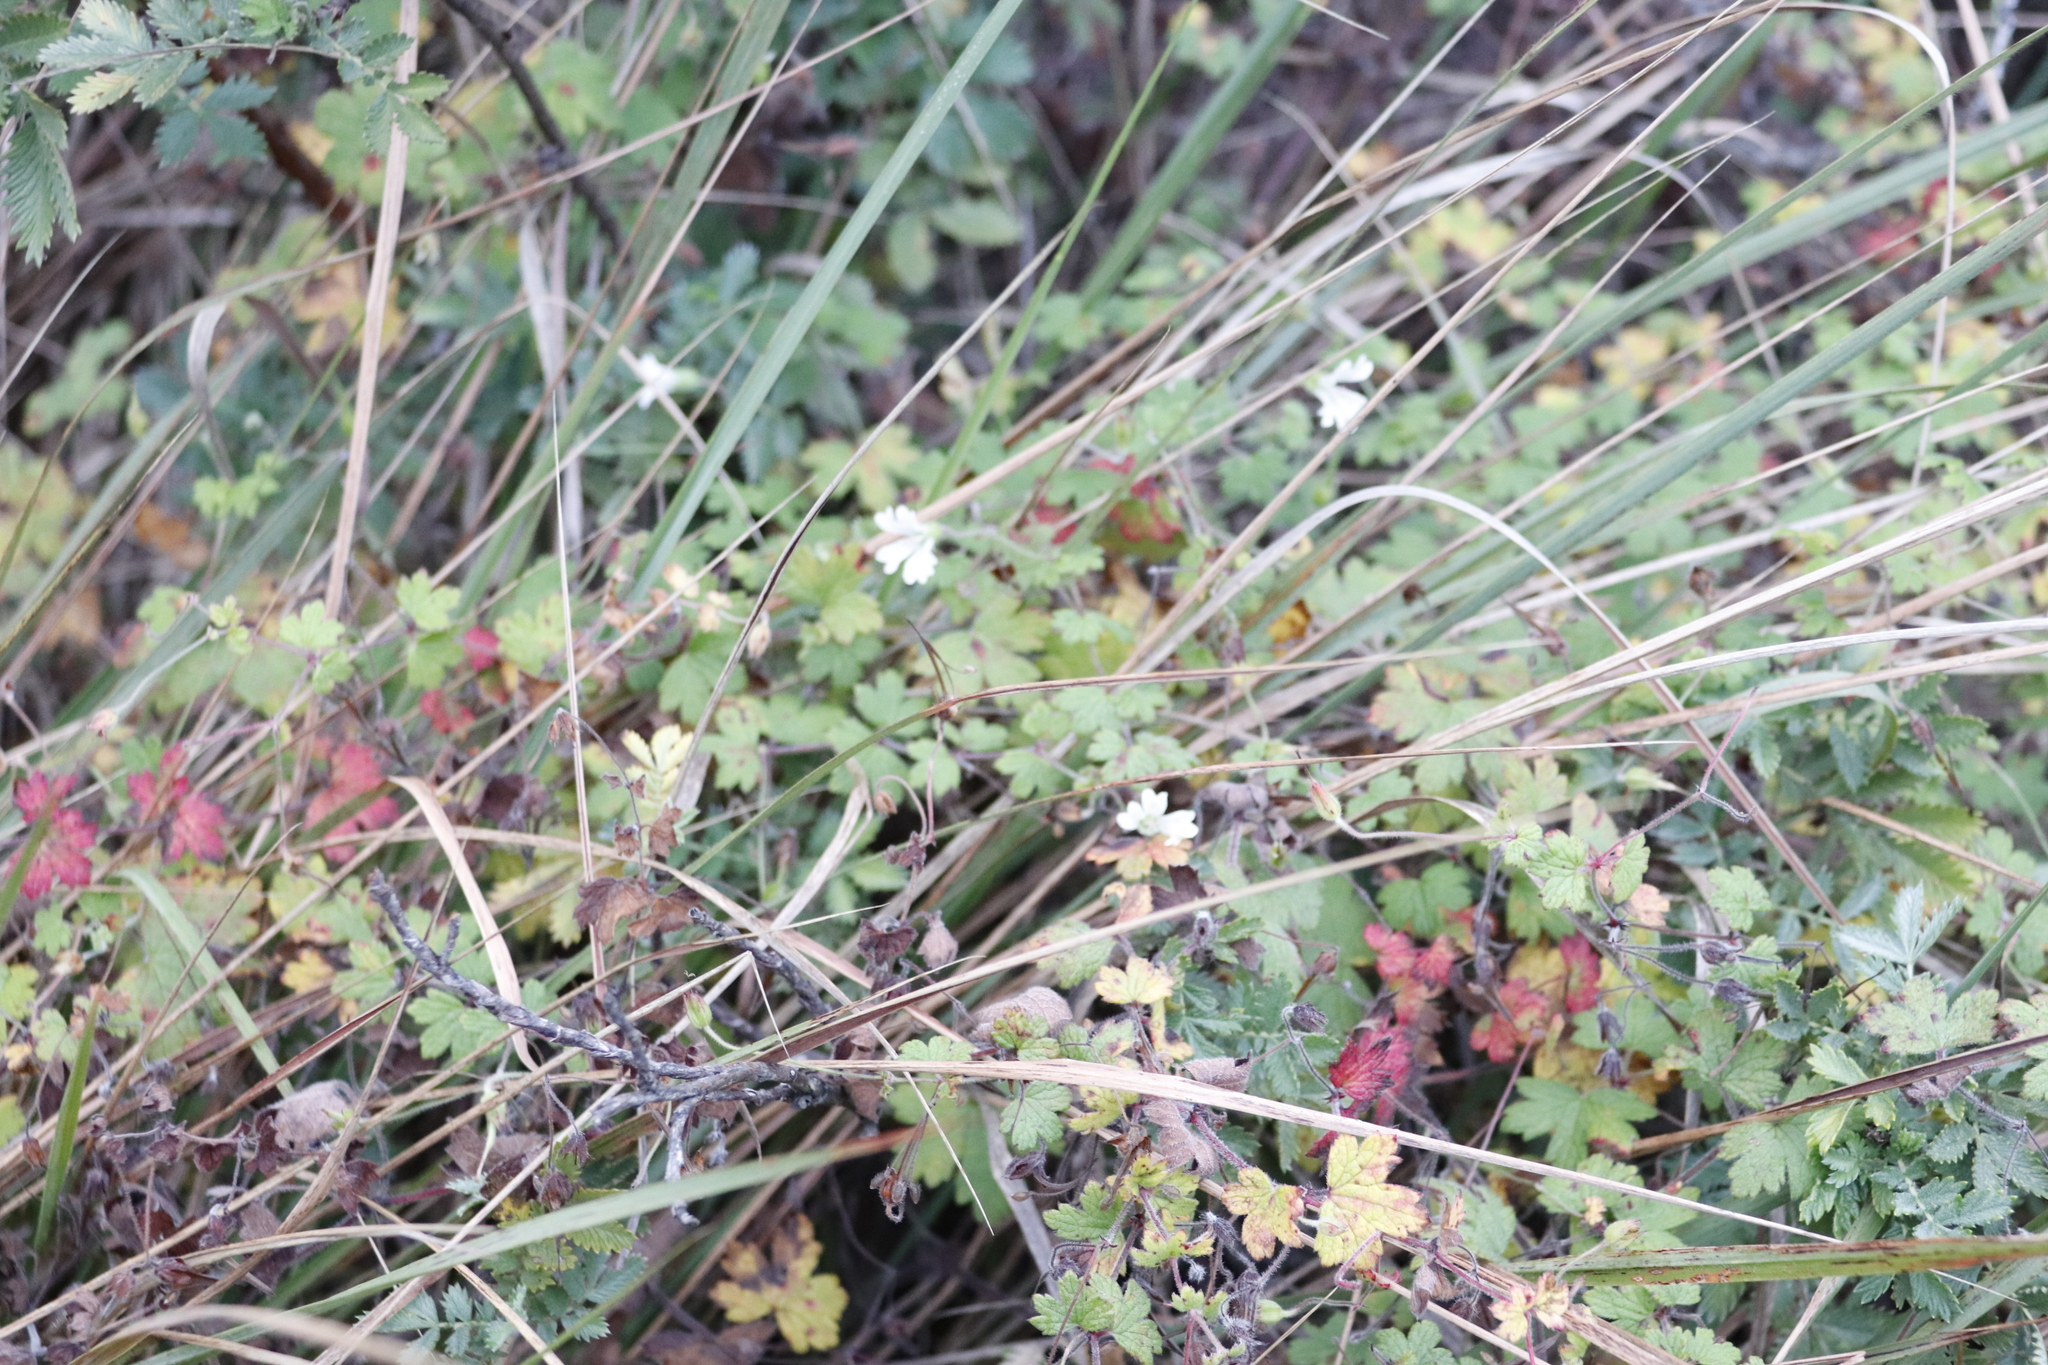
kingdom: Plantae
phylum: Tracheophyta
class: Magnoliopsida
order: Geraniales
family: Geraniaceae
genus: Geranium
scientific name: Geranium wakkerstroomianum
